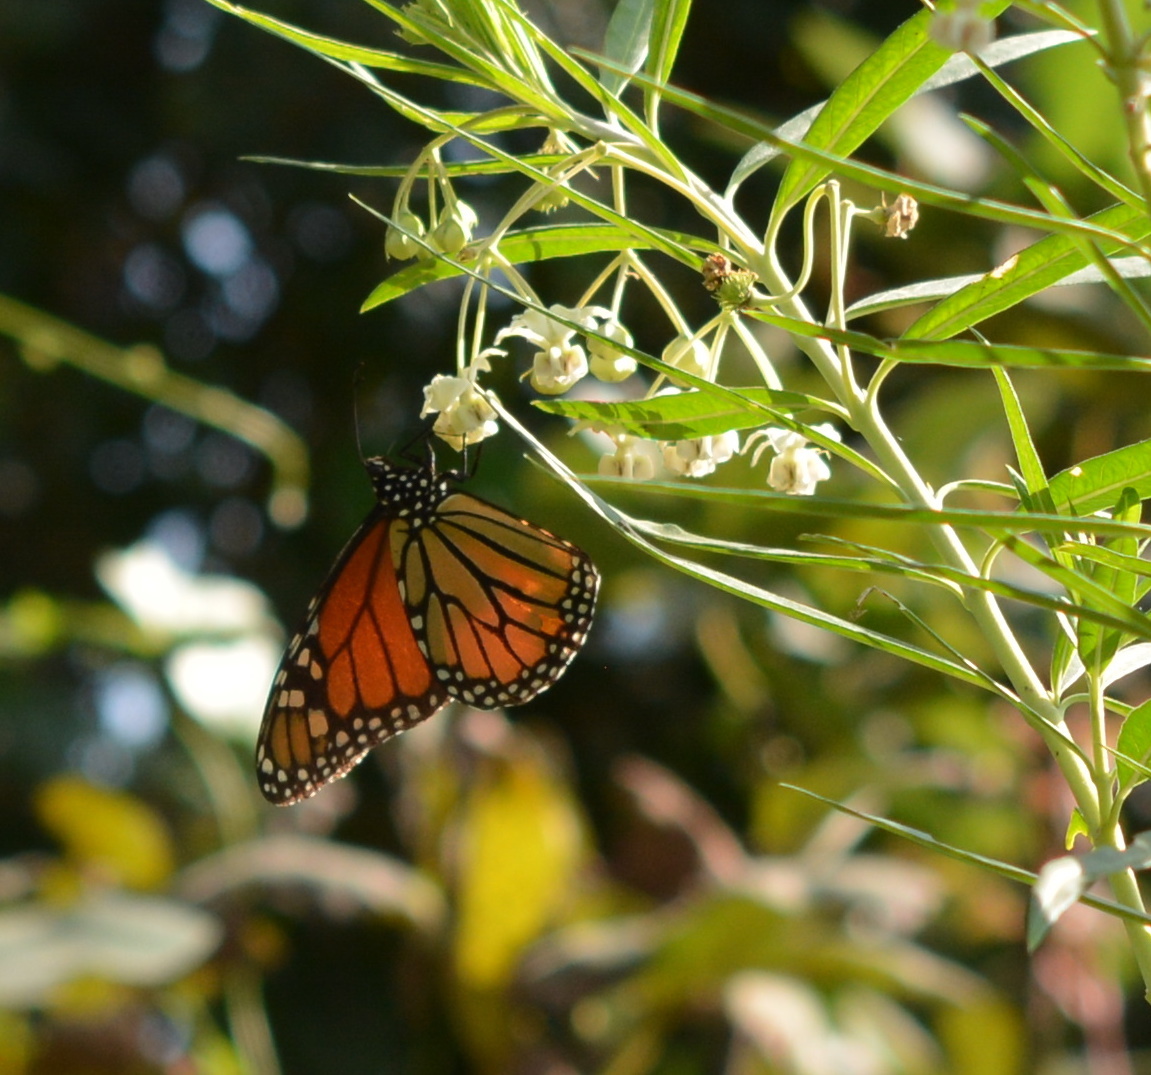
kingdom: Animalia
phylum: Arthropoda
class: Insecta
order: Lepidoptera
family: Nymphalidae
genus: Danaus
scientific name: Danaus plexippus
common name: Monarch
